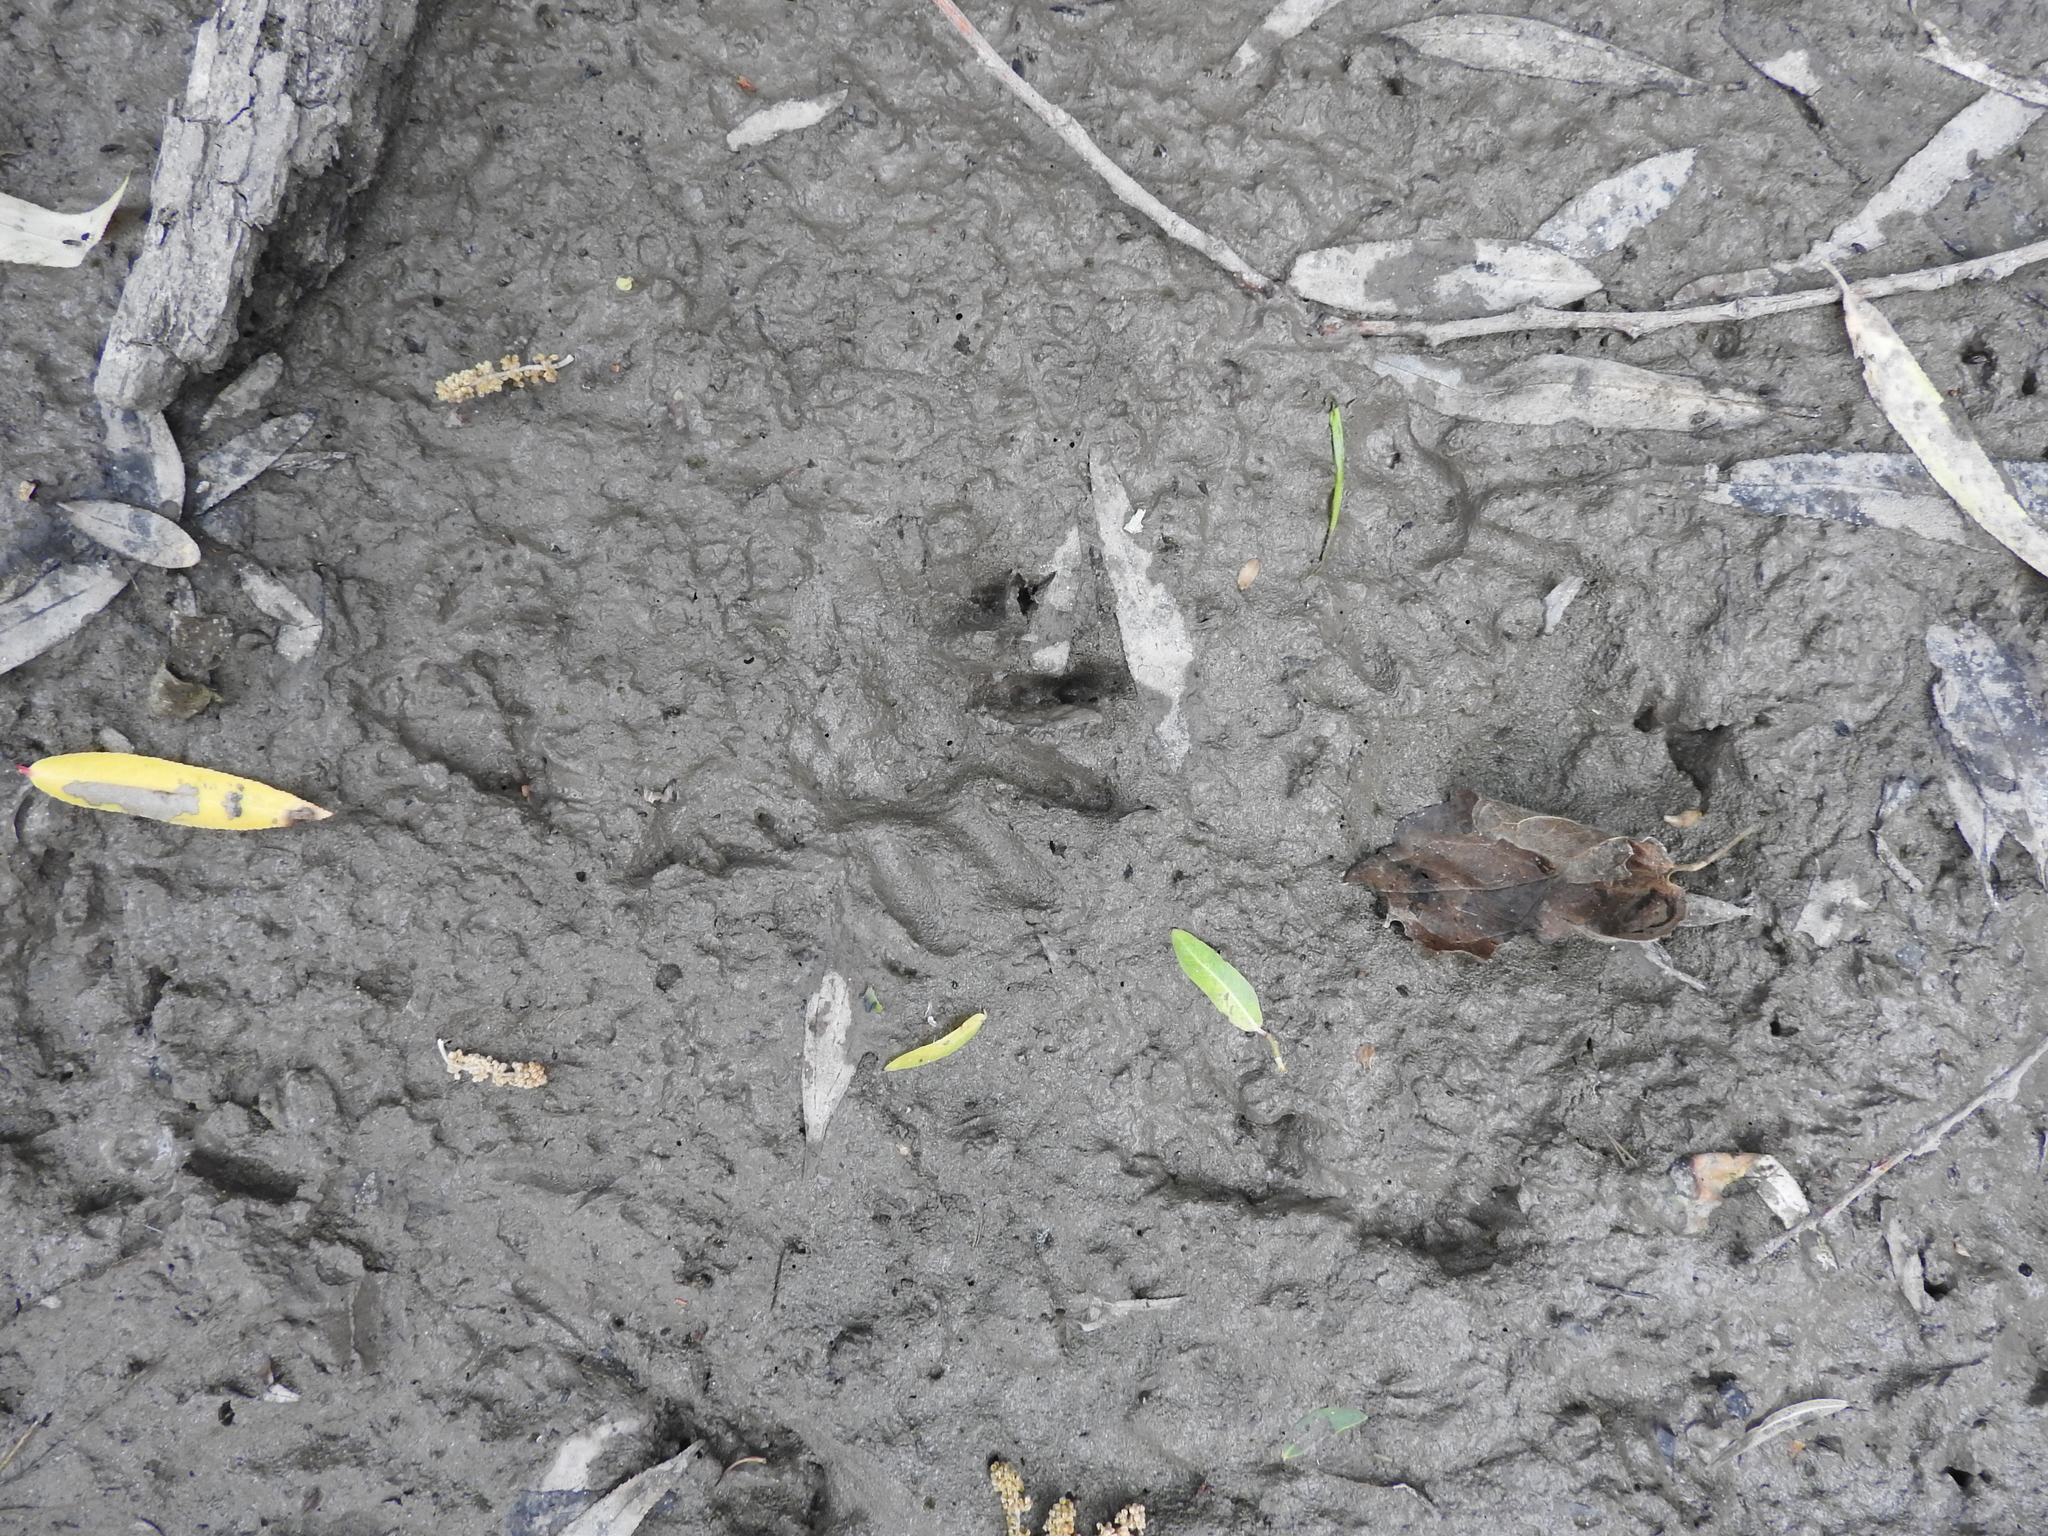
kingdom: Animalia
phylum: Chordata
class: Mammalia
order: Carnivora
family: Procyonidae
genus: Procyon
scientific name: Procyon lotor
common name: Raccoon
